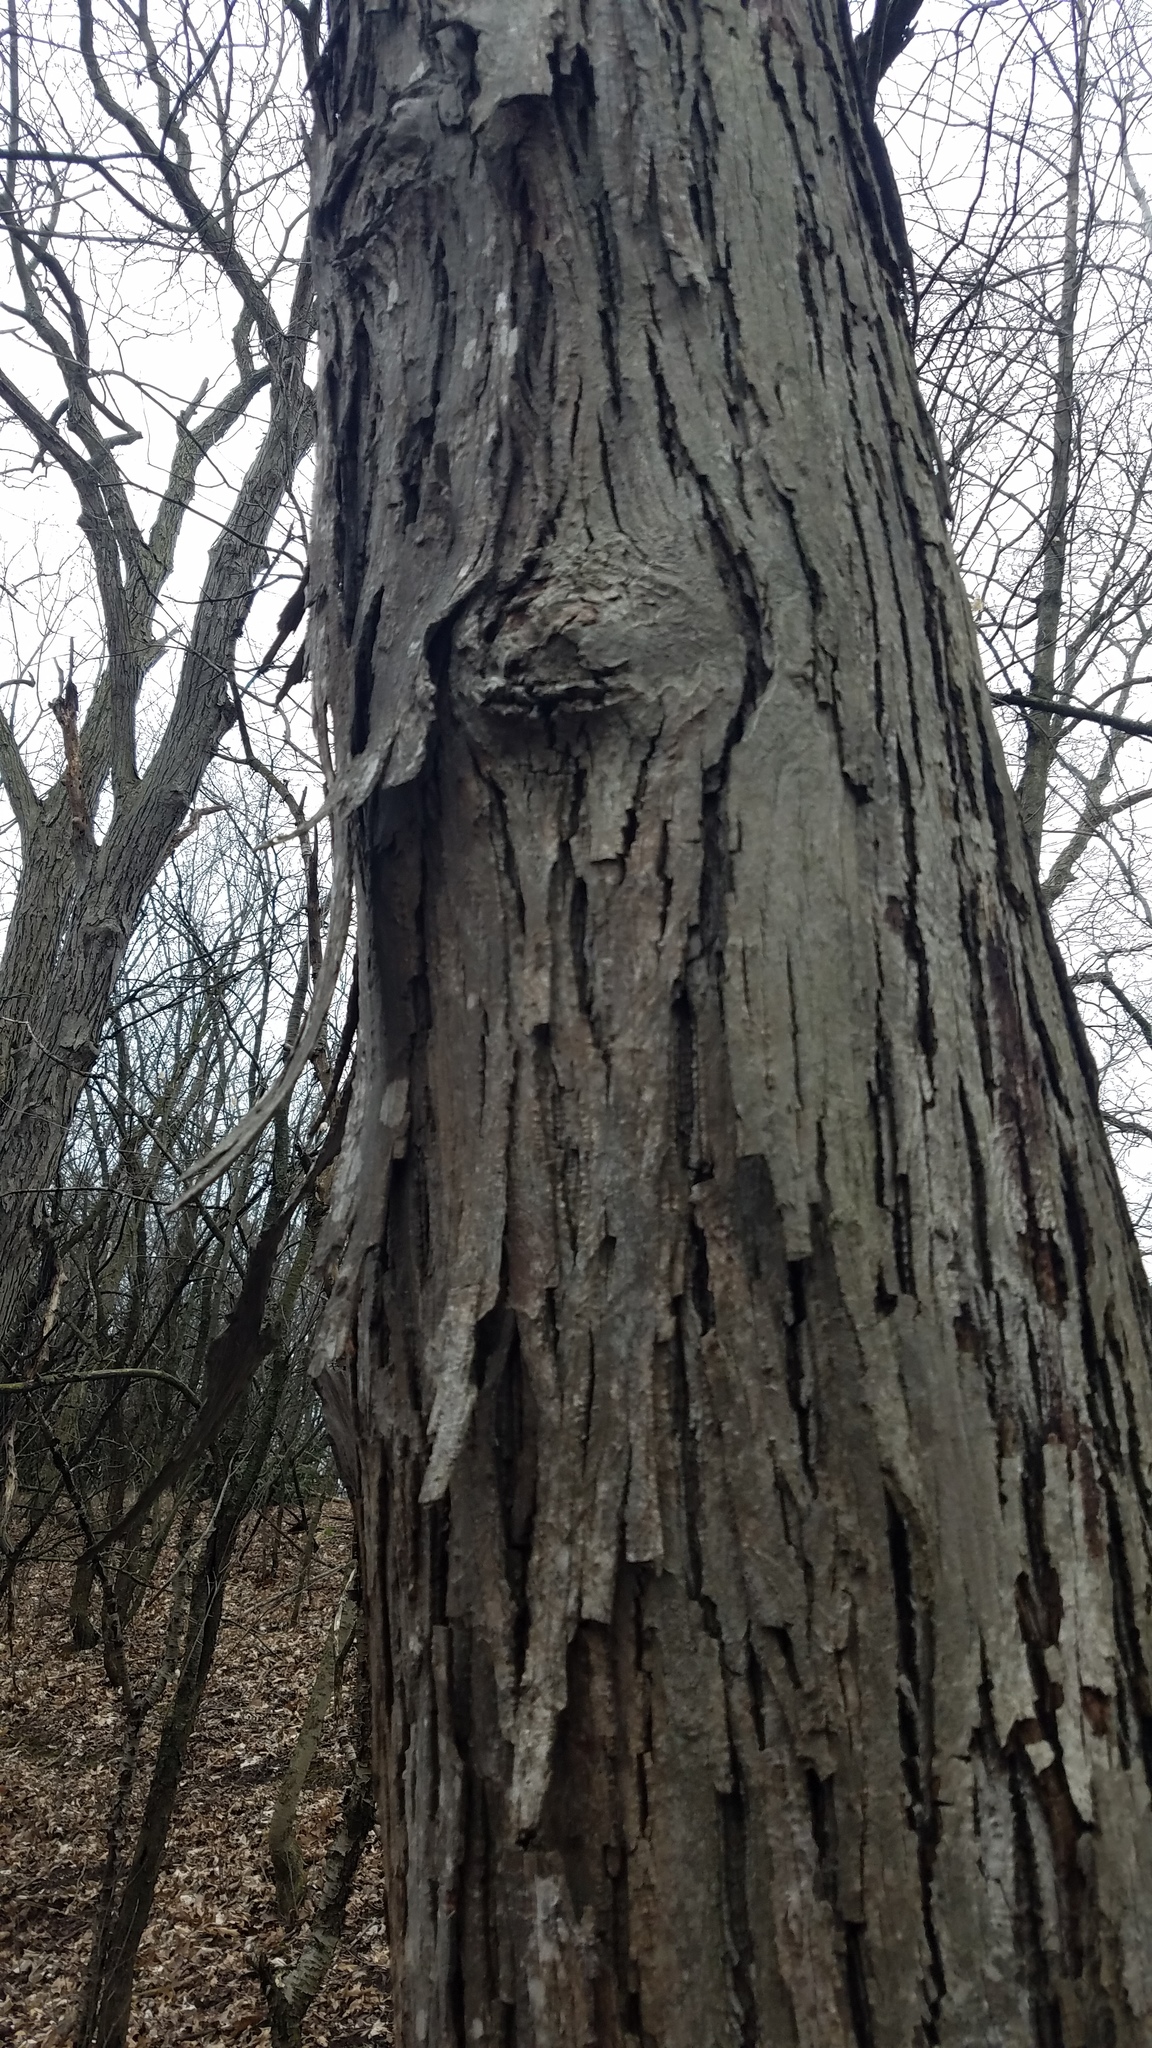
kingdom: Plantae
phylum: Tracheophyta
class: Magnoliopsida
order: Fagales
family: Juglandaceae
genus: Carya
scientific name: Carya ovata
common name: Shagbark hickory
